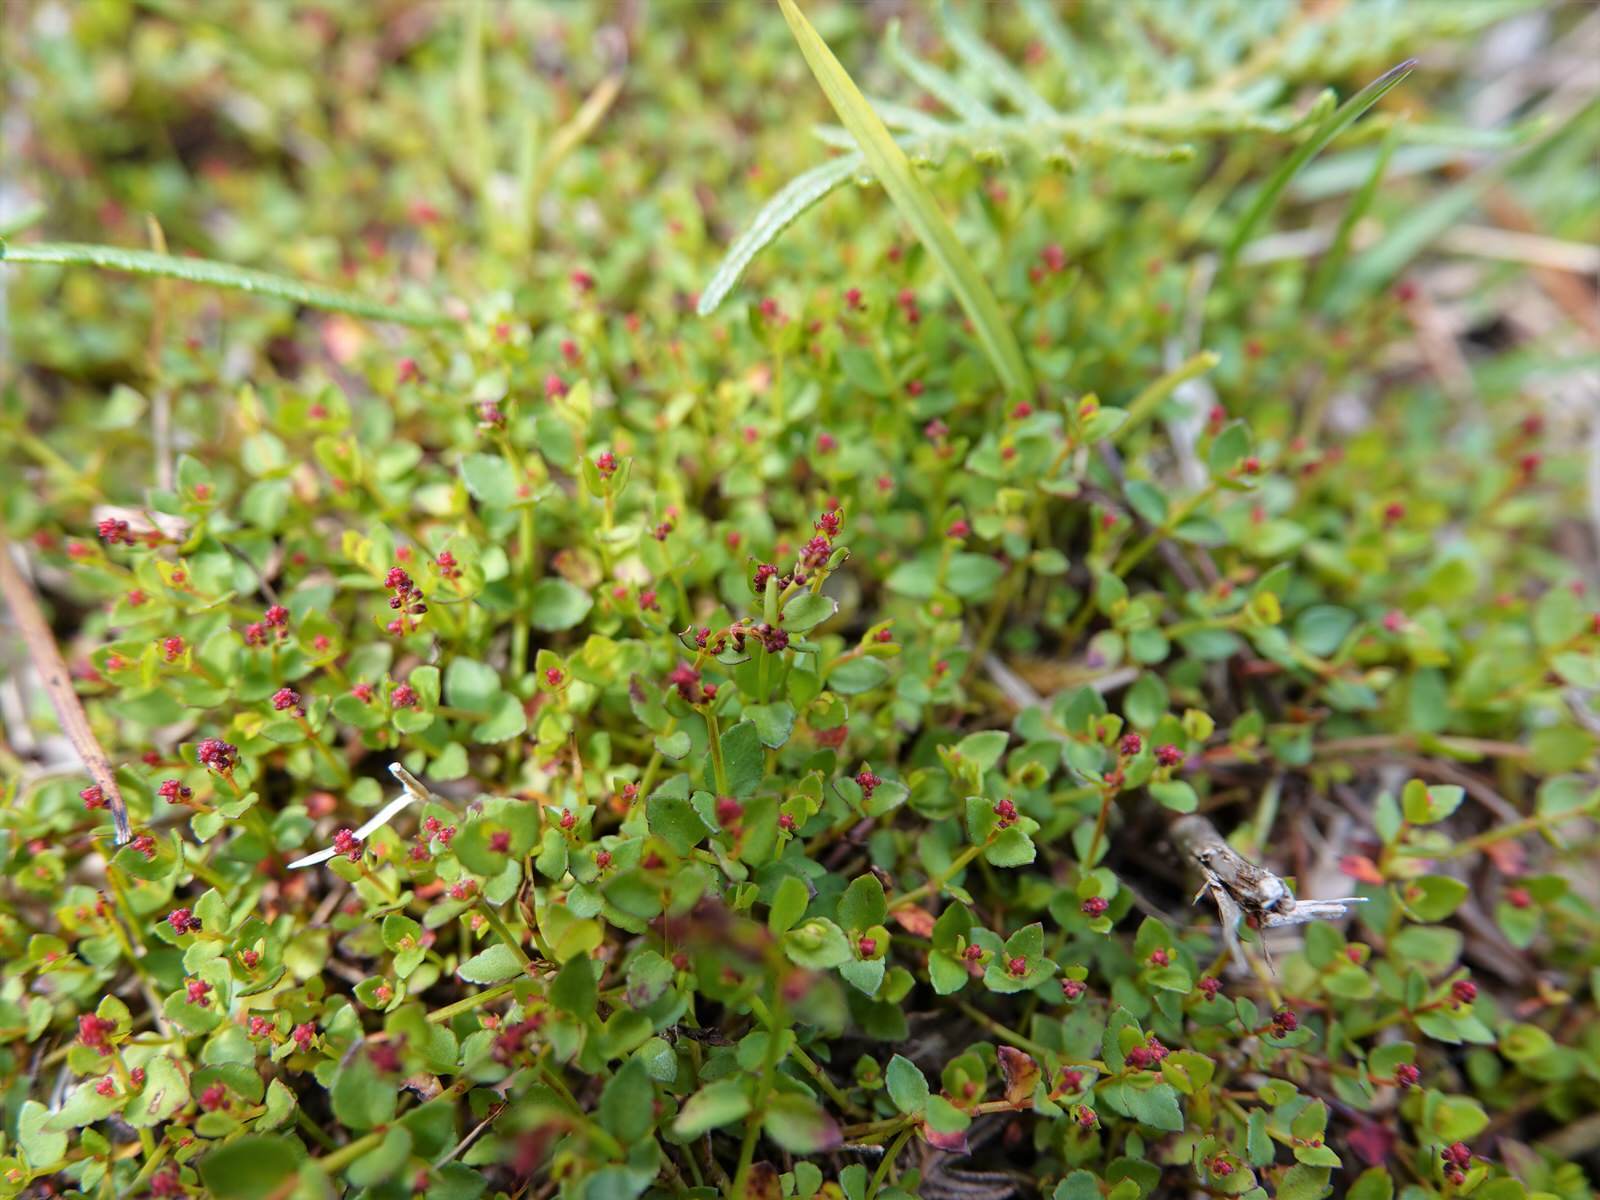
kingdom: Plantae
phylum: Tracheophyta
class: Magnoliopsida
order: Saxifragales
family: Haloragaceae
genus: Gonocarpus
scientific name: Gonocarpus micranthus
